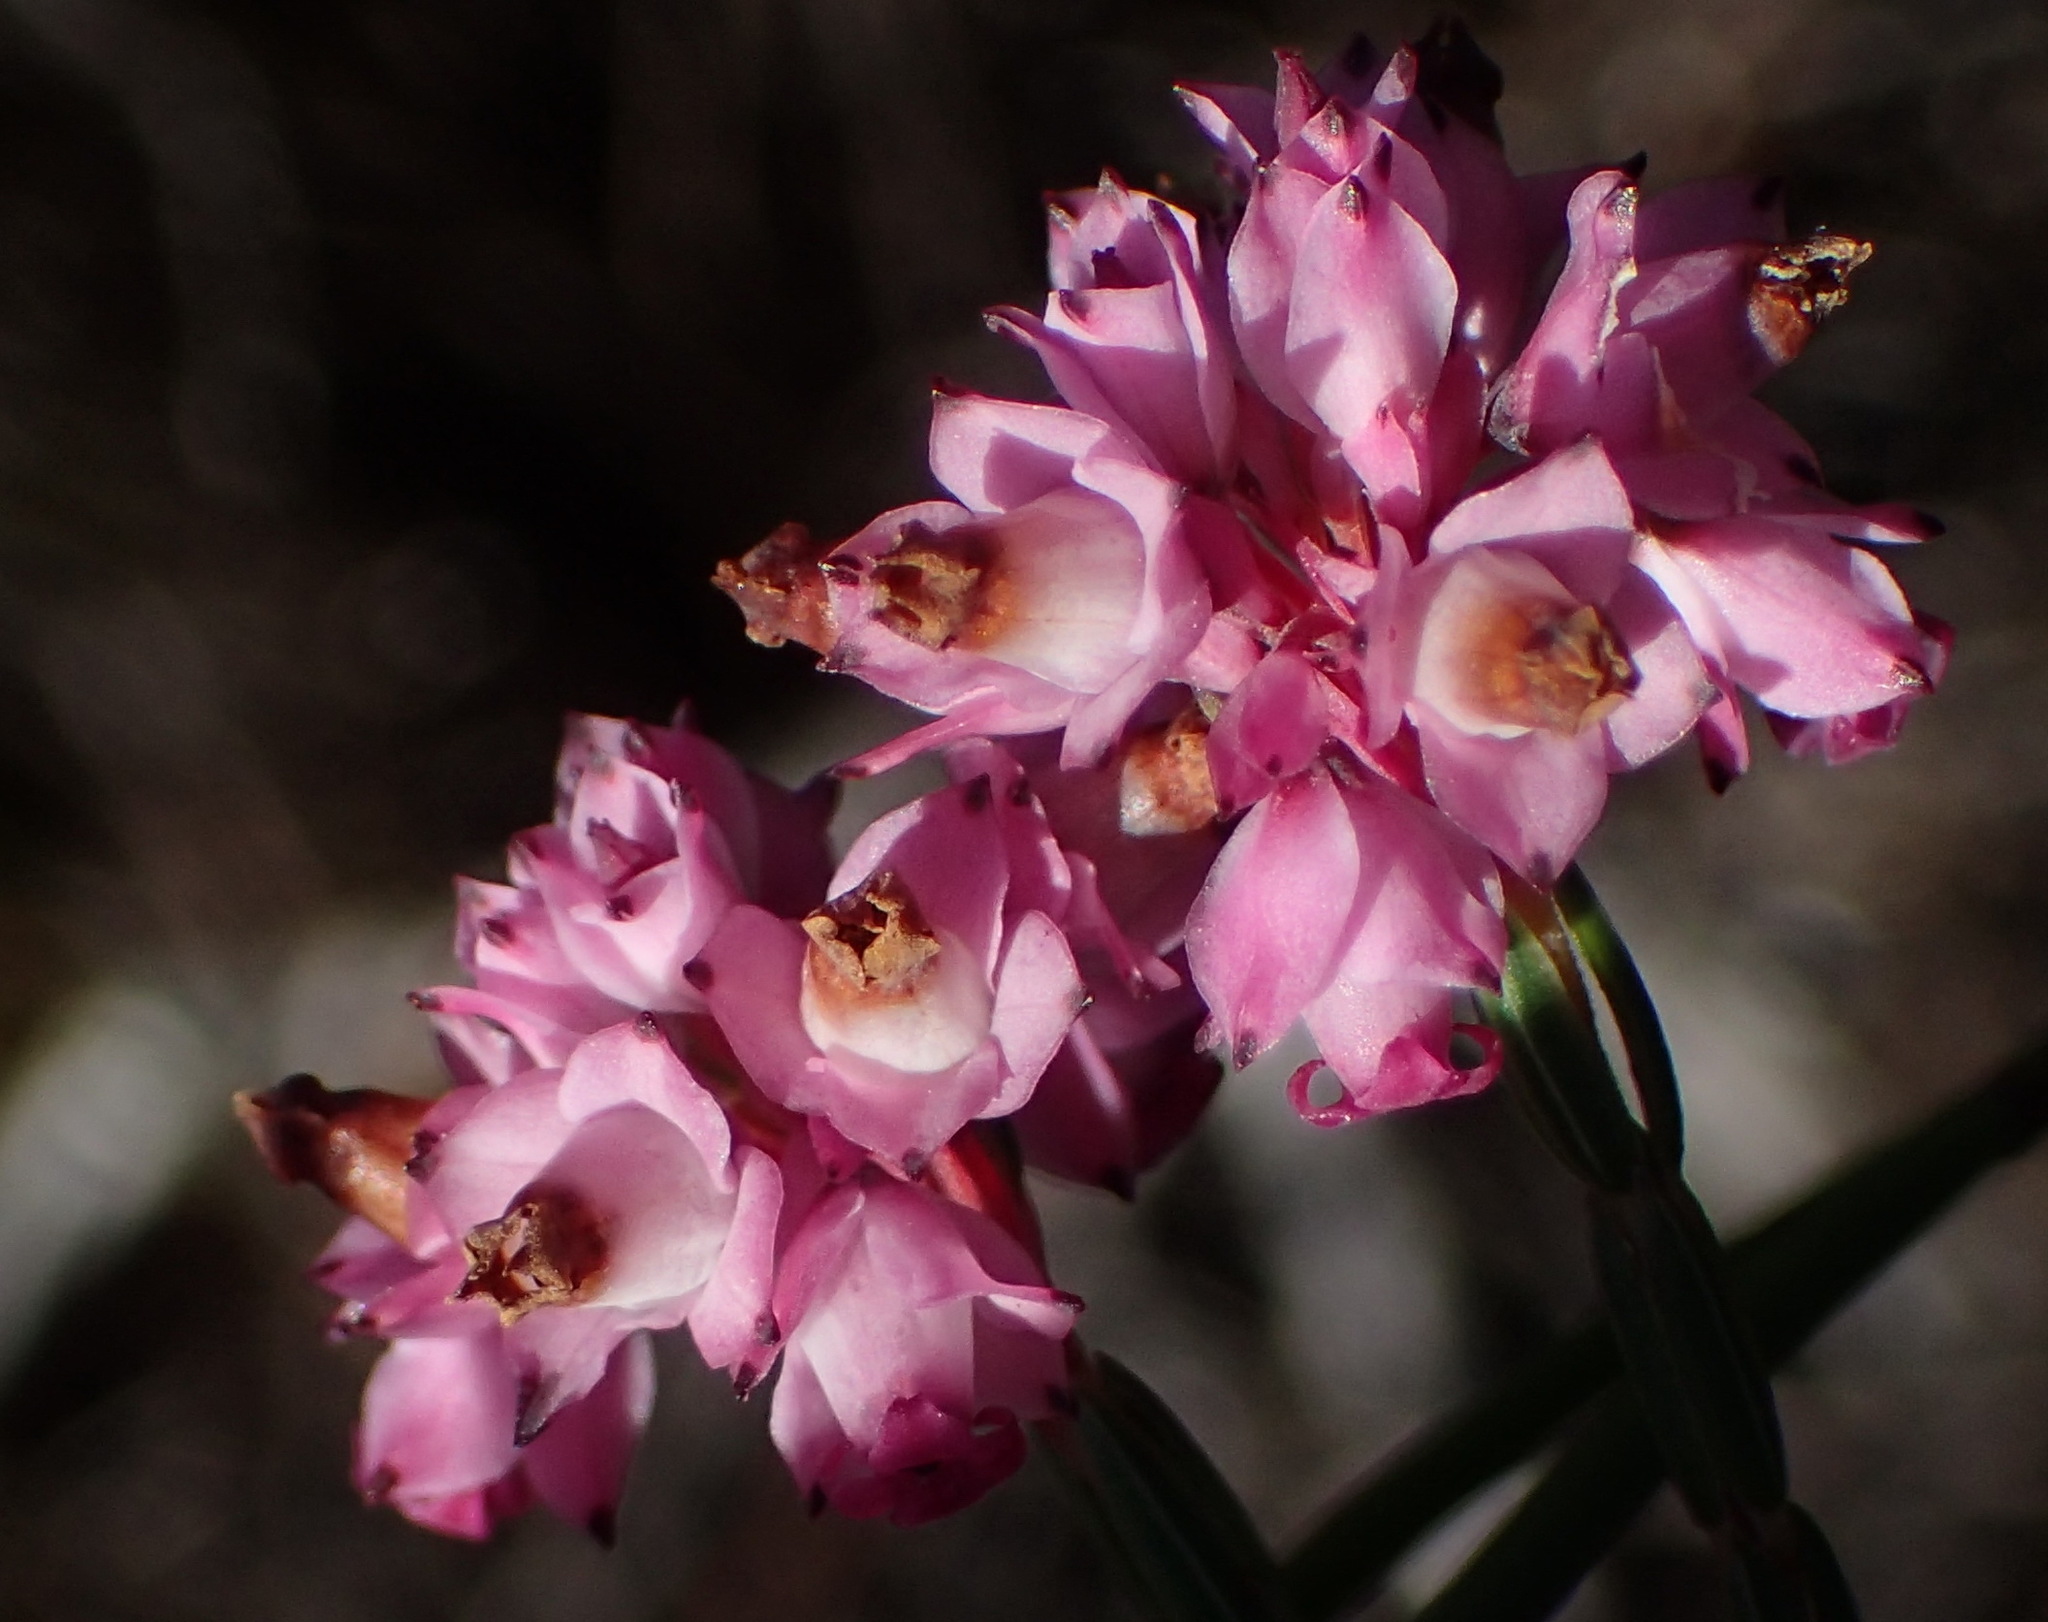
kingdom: Plantae
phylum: Tracheophyta
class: Magnoliopsida
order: Ericales
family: Ericaceae
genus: Erica
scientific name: Erica corifolia
